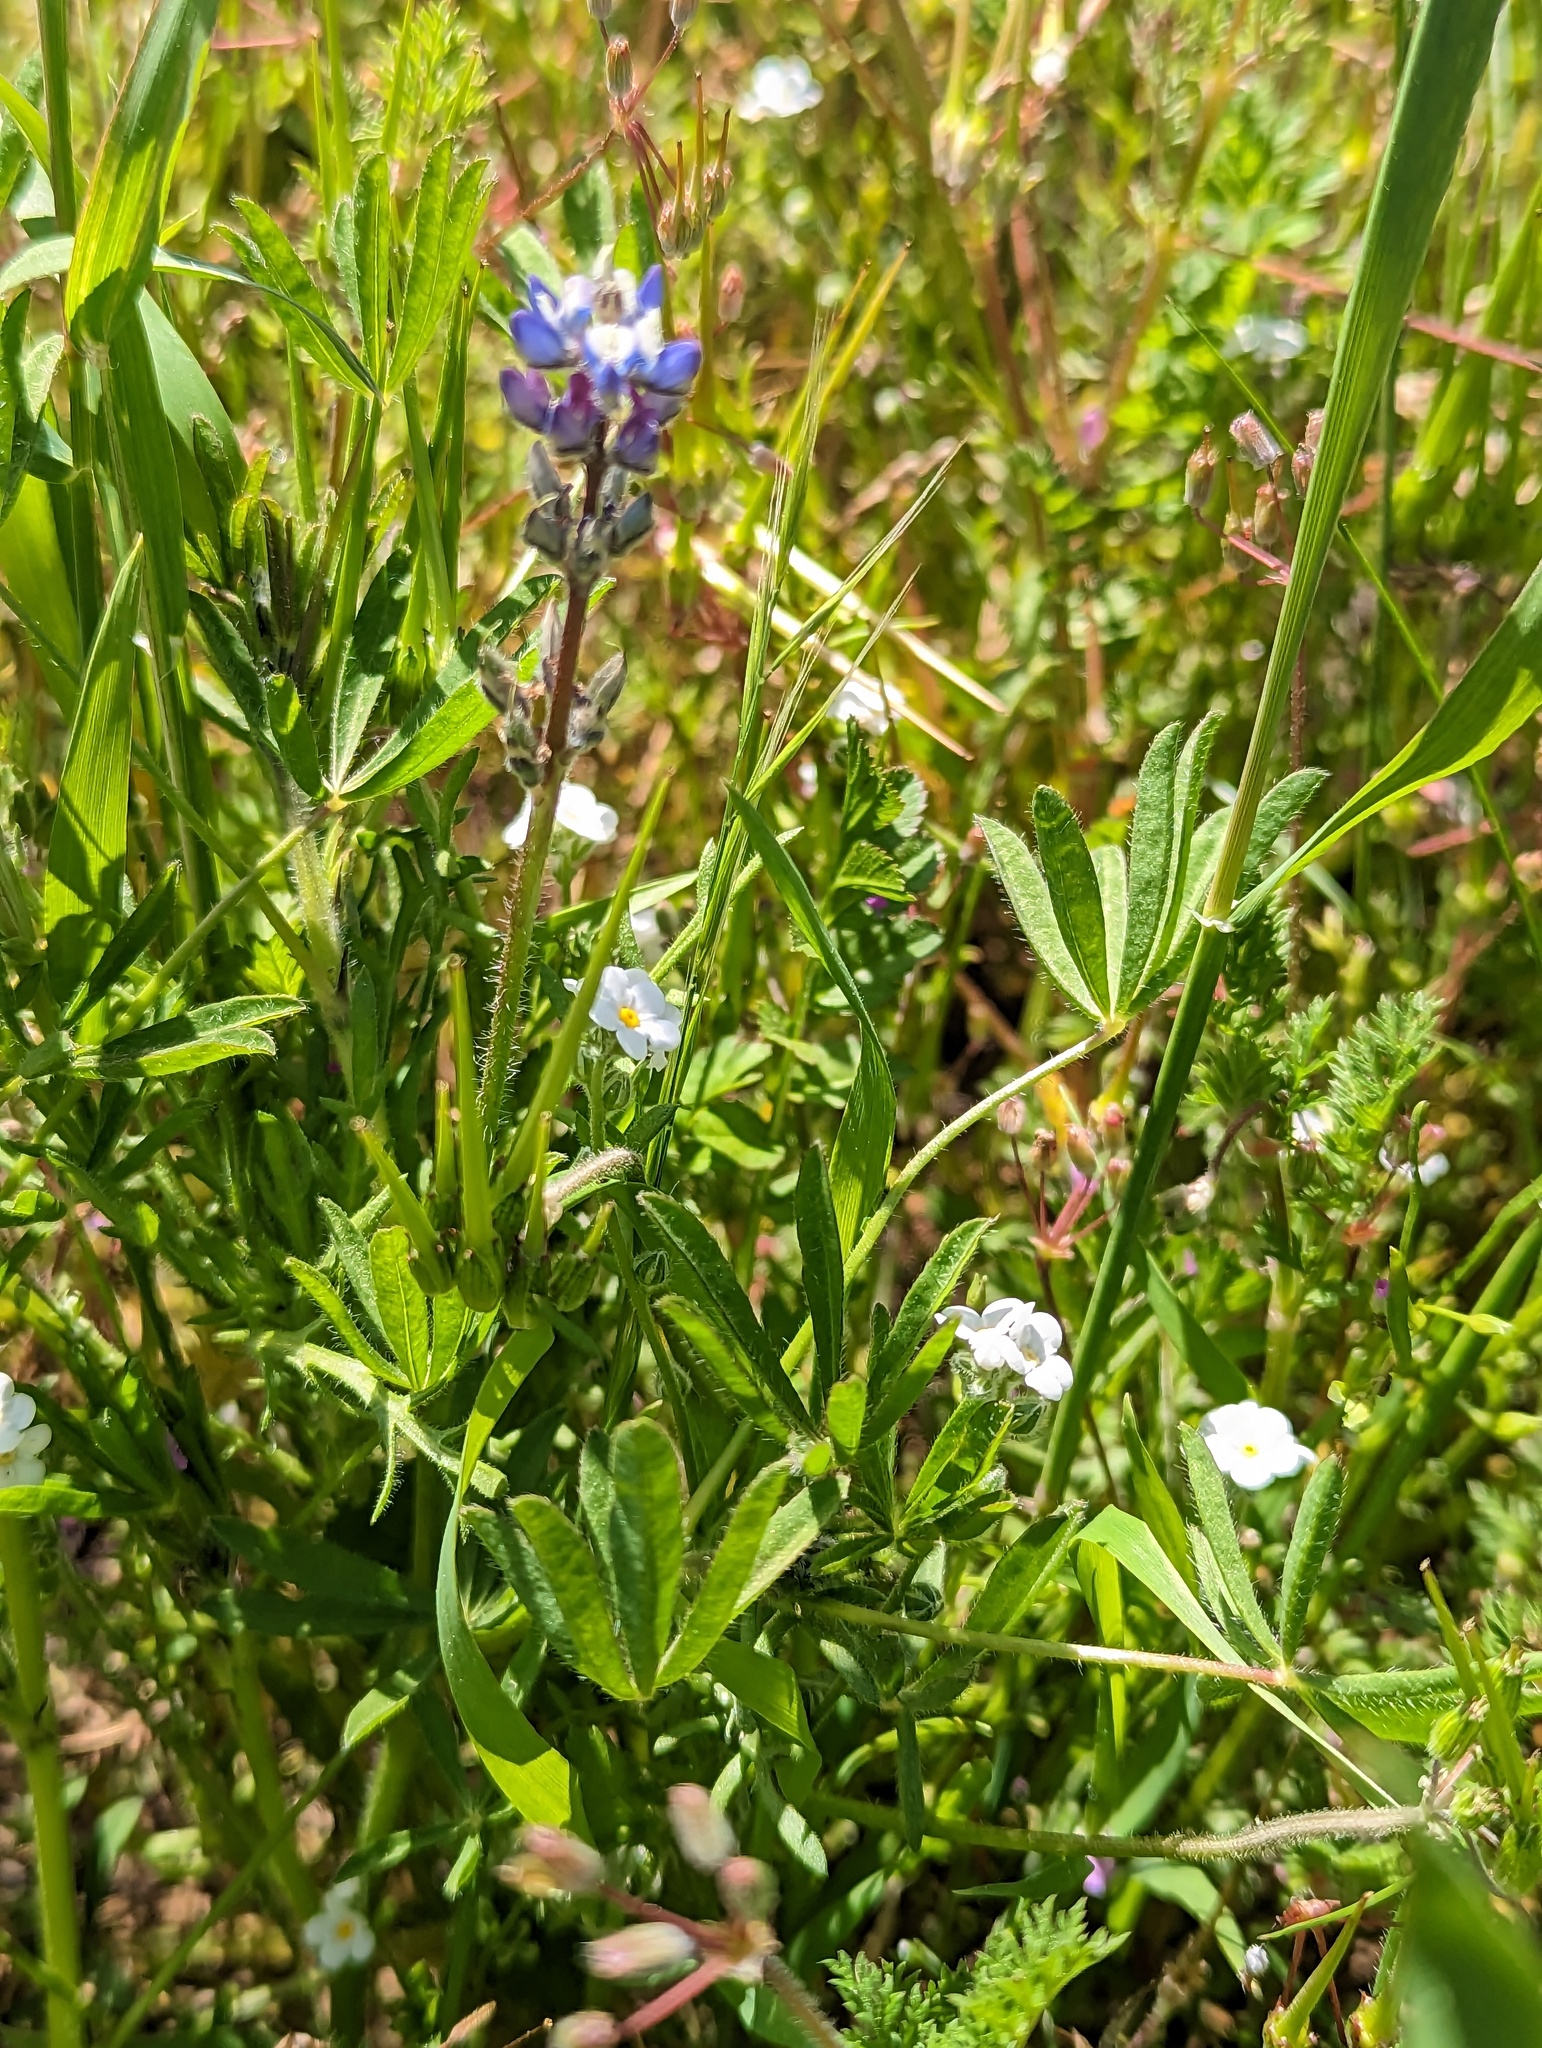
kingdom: Plantae
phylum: Tracheophyta
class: Magnoliopsida
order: Fabales
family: Fabaceae
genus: Lupinus
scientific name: Lupinus bicolor
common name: Miniature lupine
